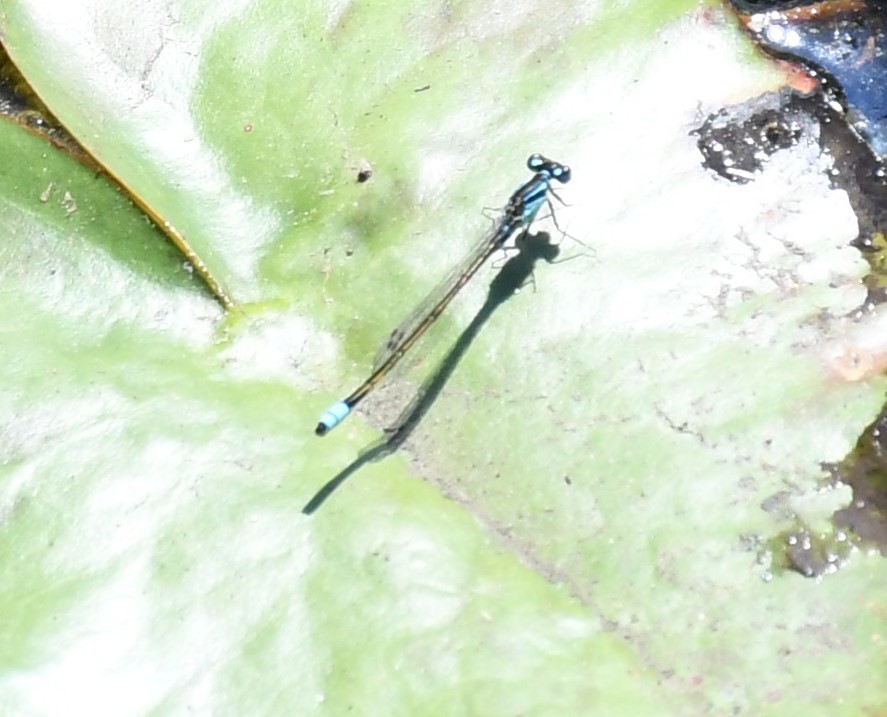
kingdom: Animalia
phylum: Arthropoda
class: Insecta
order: Odonata
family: Coenagrionidae
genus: Ischnura
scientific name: Ischnura heterosticta
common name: Common bluetail
